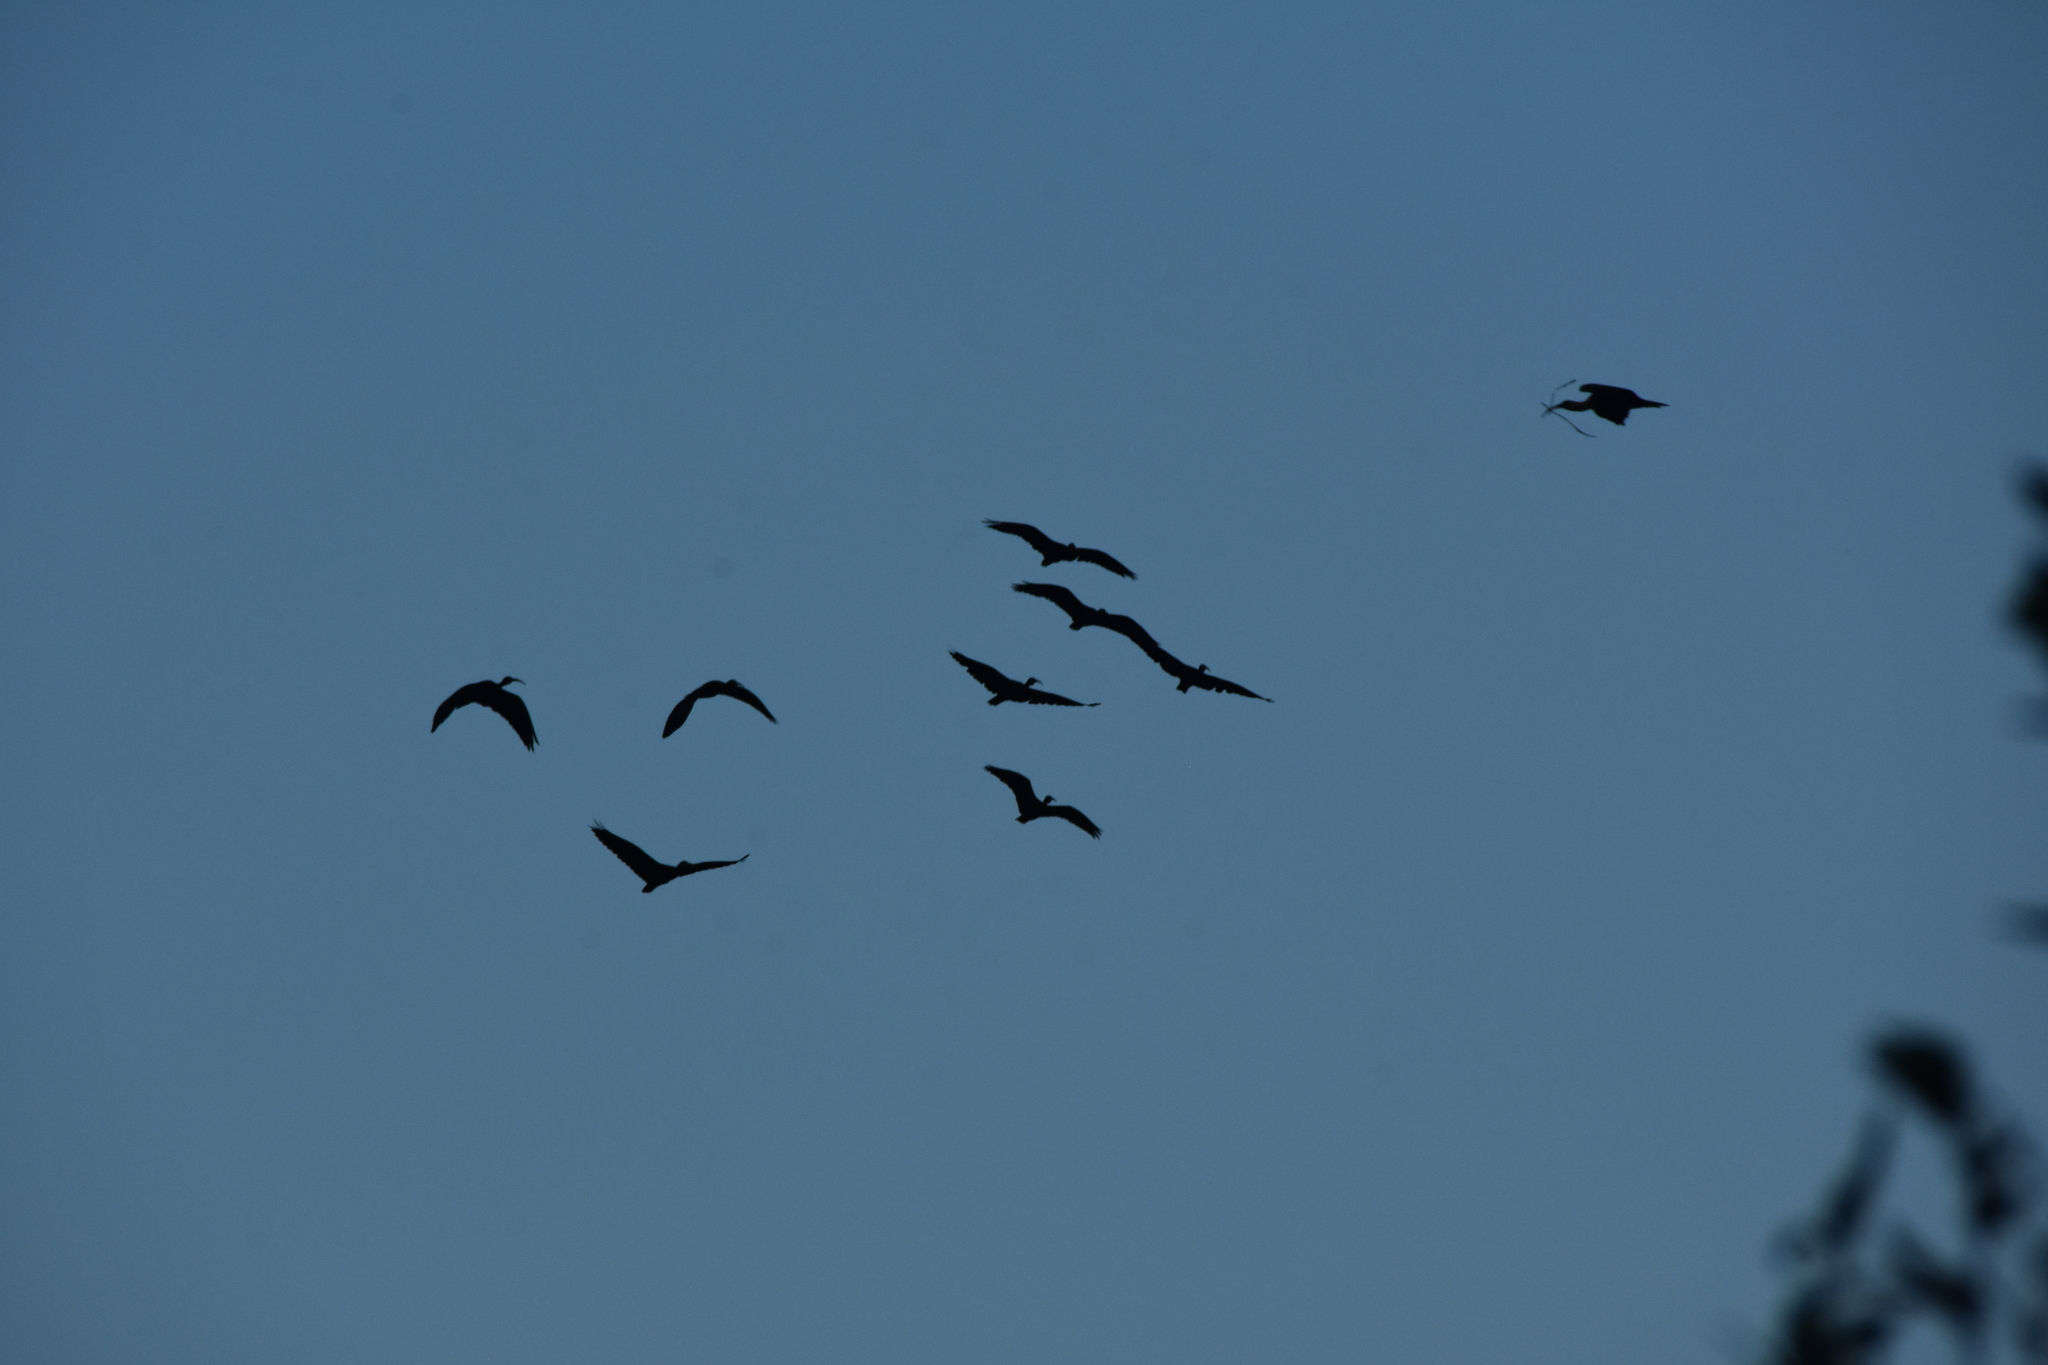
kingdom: Animalia
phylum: Chordata
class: Aves
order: Pelecaniformes
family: Threskiornithidae
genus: Phimosus
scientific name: Phimosus infuscatus
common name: Bare-faced ibis
